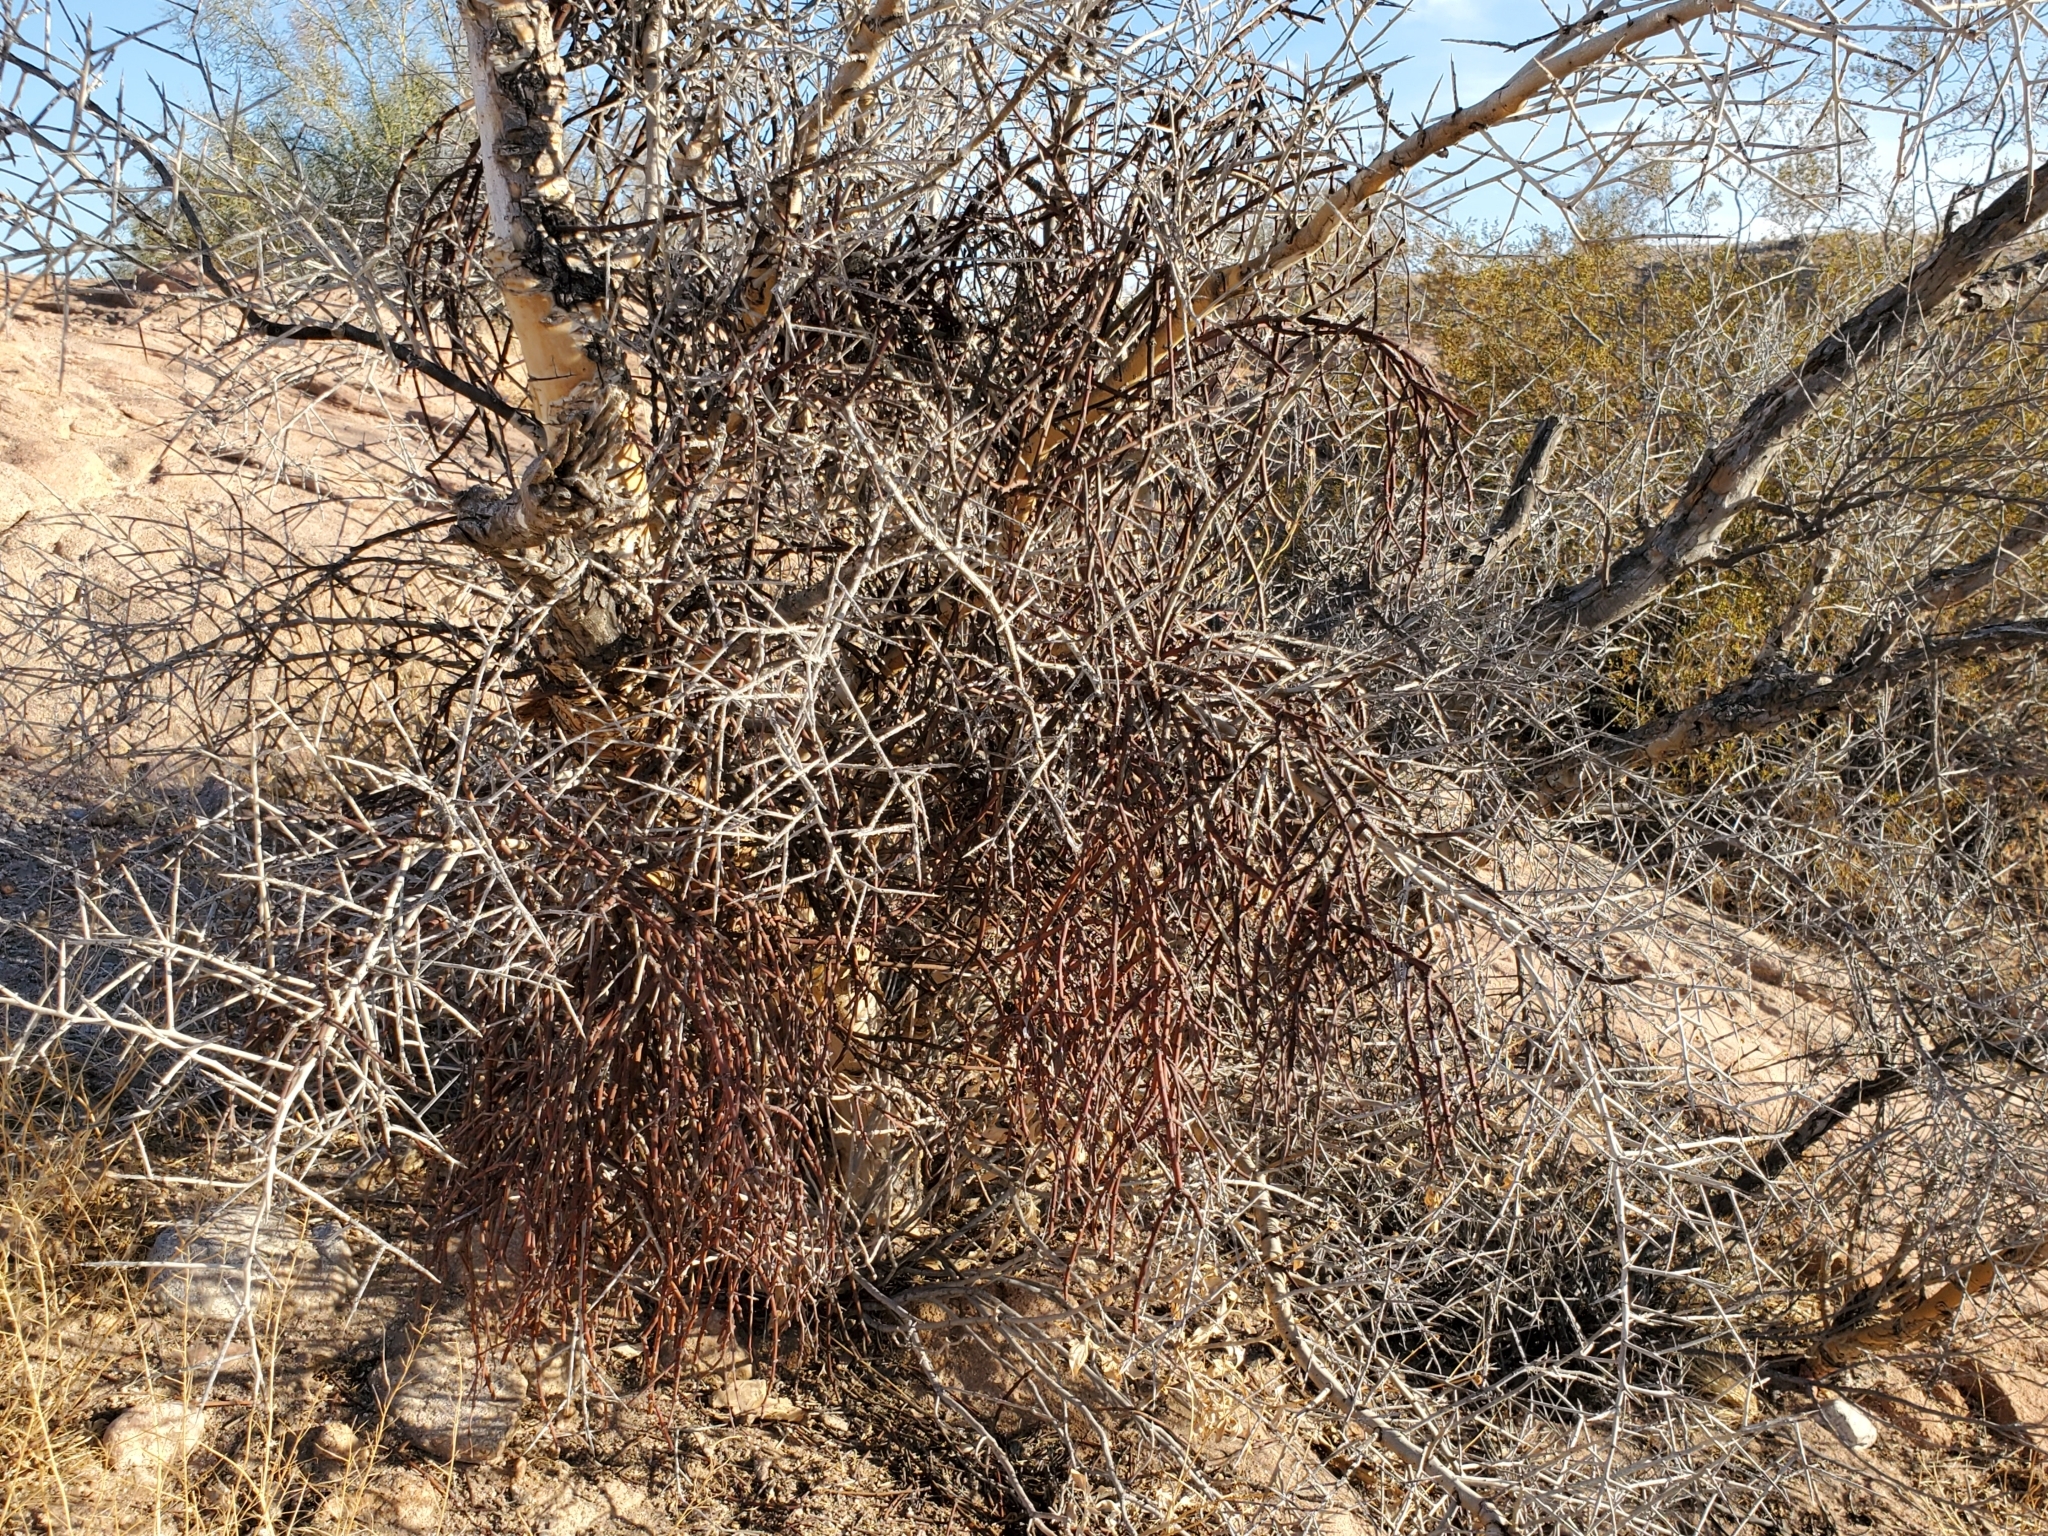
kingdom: Plantae
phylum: Tracheophyta
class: Magnoliopsida
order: Santalales
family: Viscaceae
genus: Phoradendron
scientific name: Phoradendron californicum
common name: Acacia mistletoe
